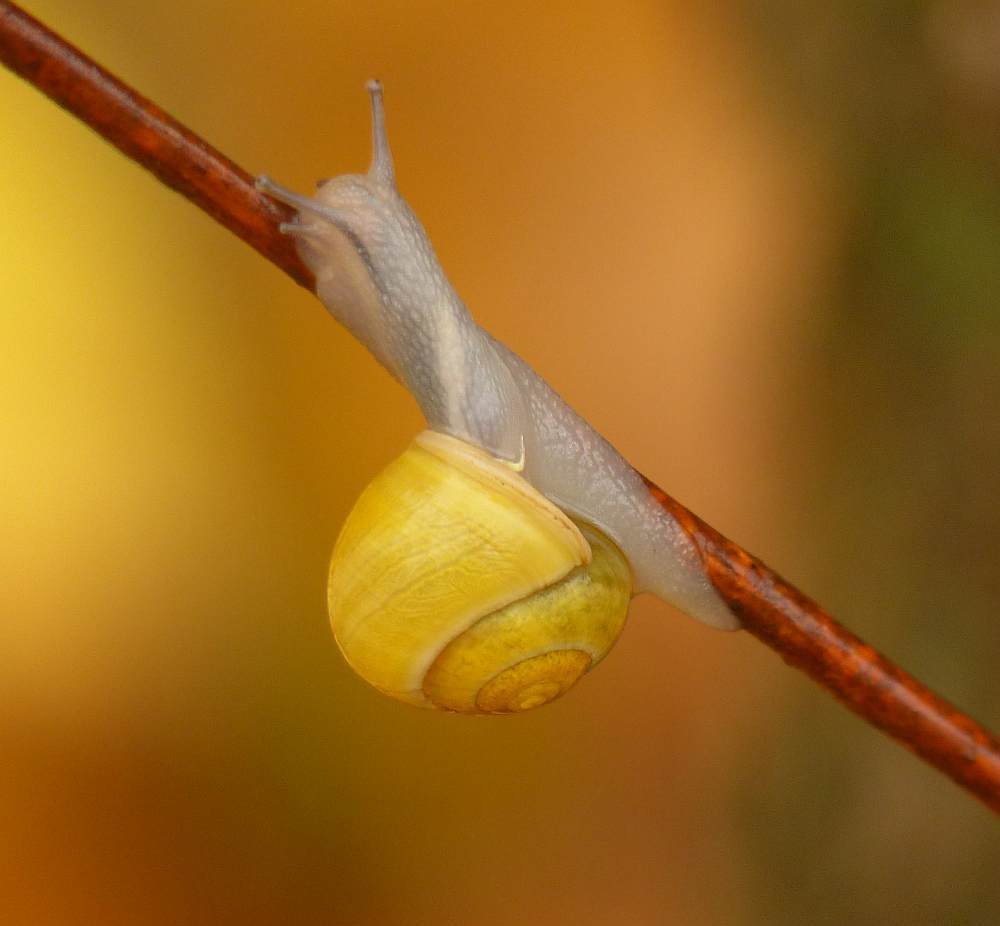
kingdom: Animalia
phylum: Mollusca
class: Gastropoda
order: Stylommatophora
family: Helicidae
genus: Cepaea
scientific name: Cepaea
